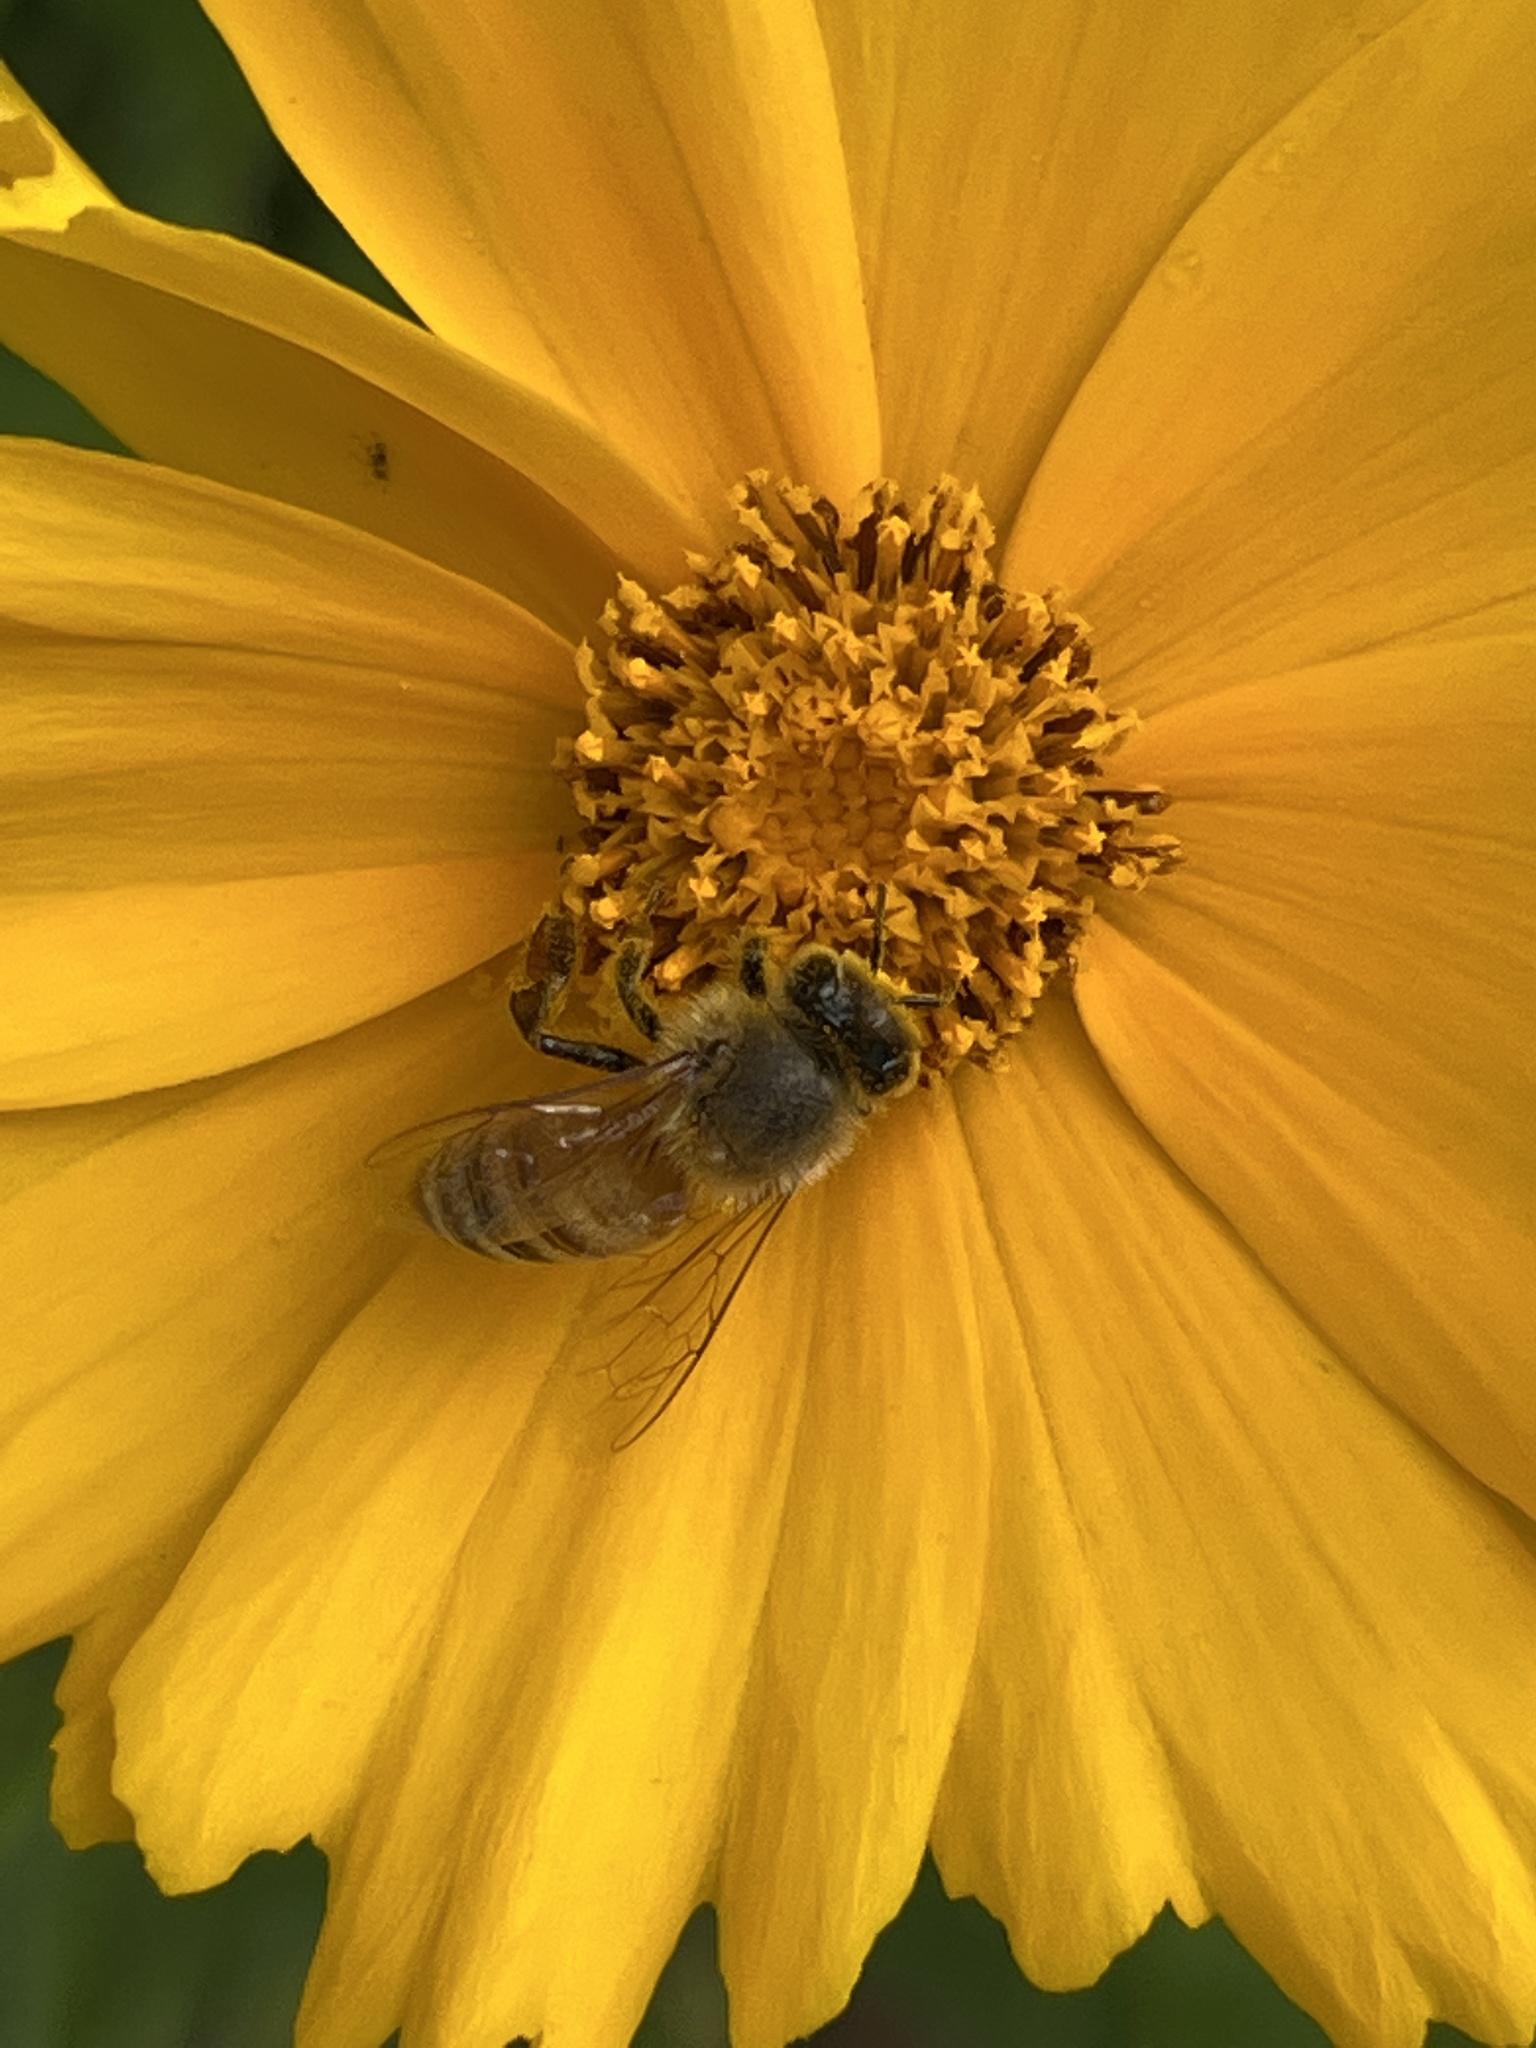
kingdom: Animalia
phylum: Arthropoda
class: Insecta
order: Hymenoptera
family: Apidae
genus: Apis
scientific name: Apis mellifera
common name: Honey bee
